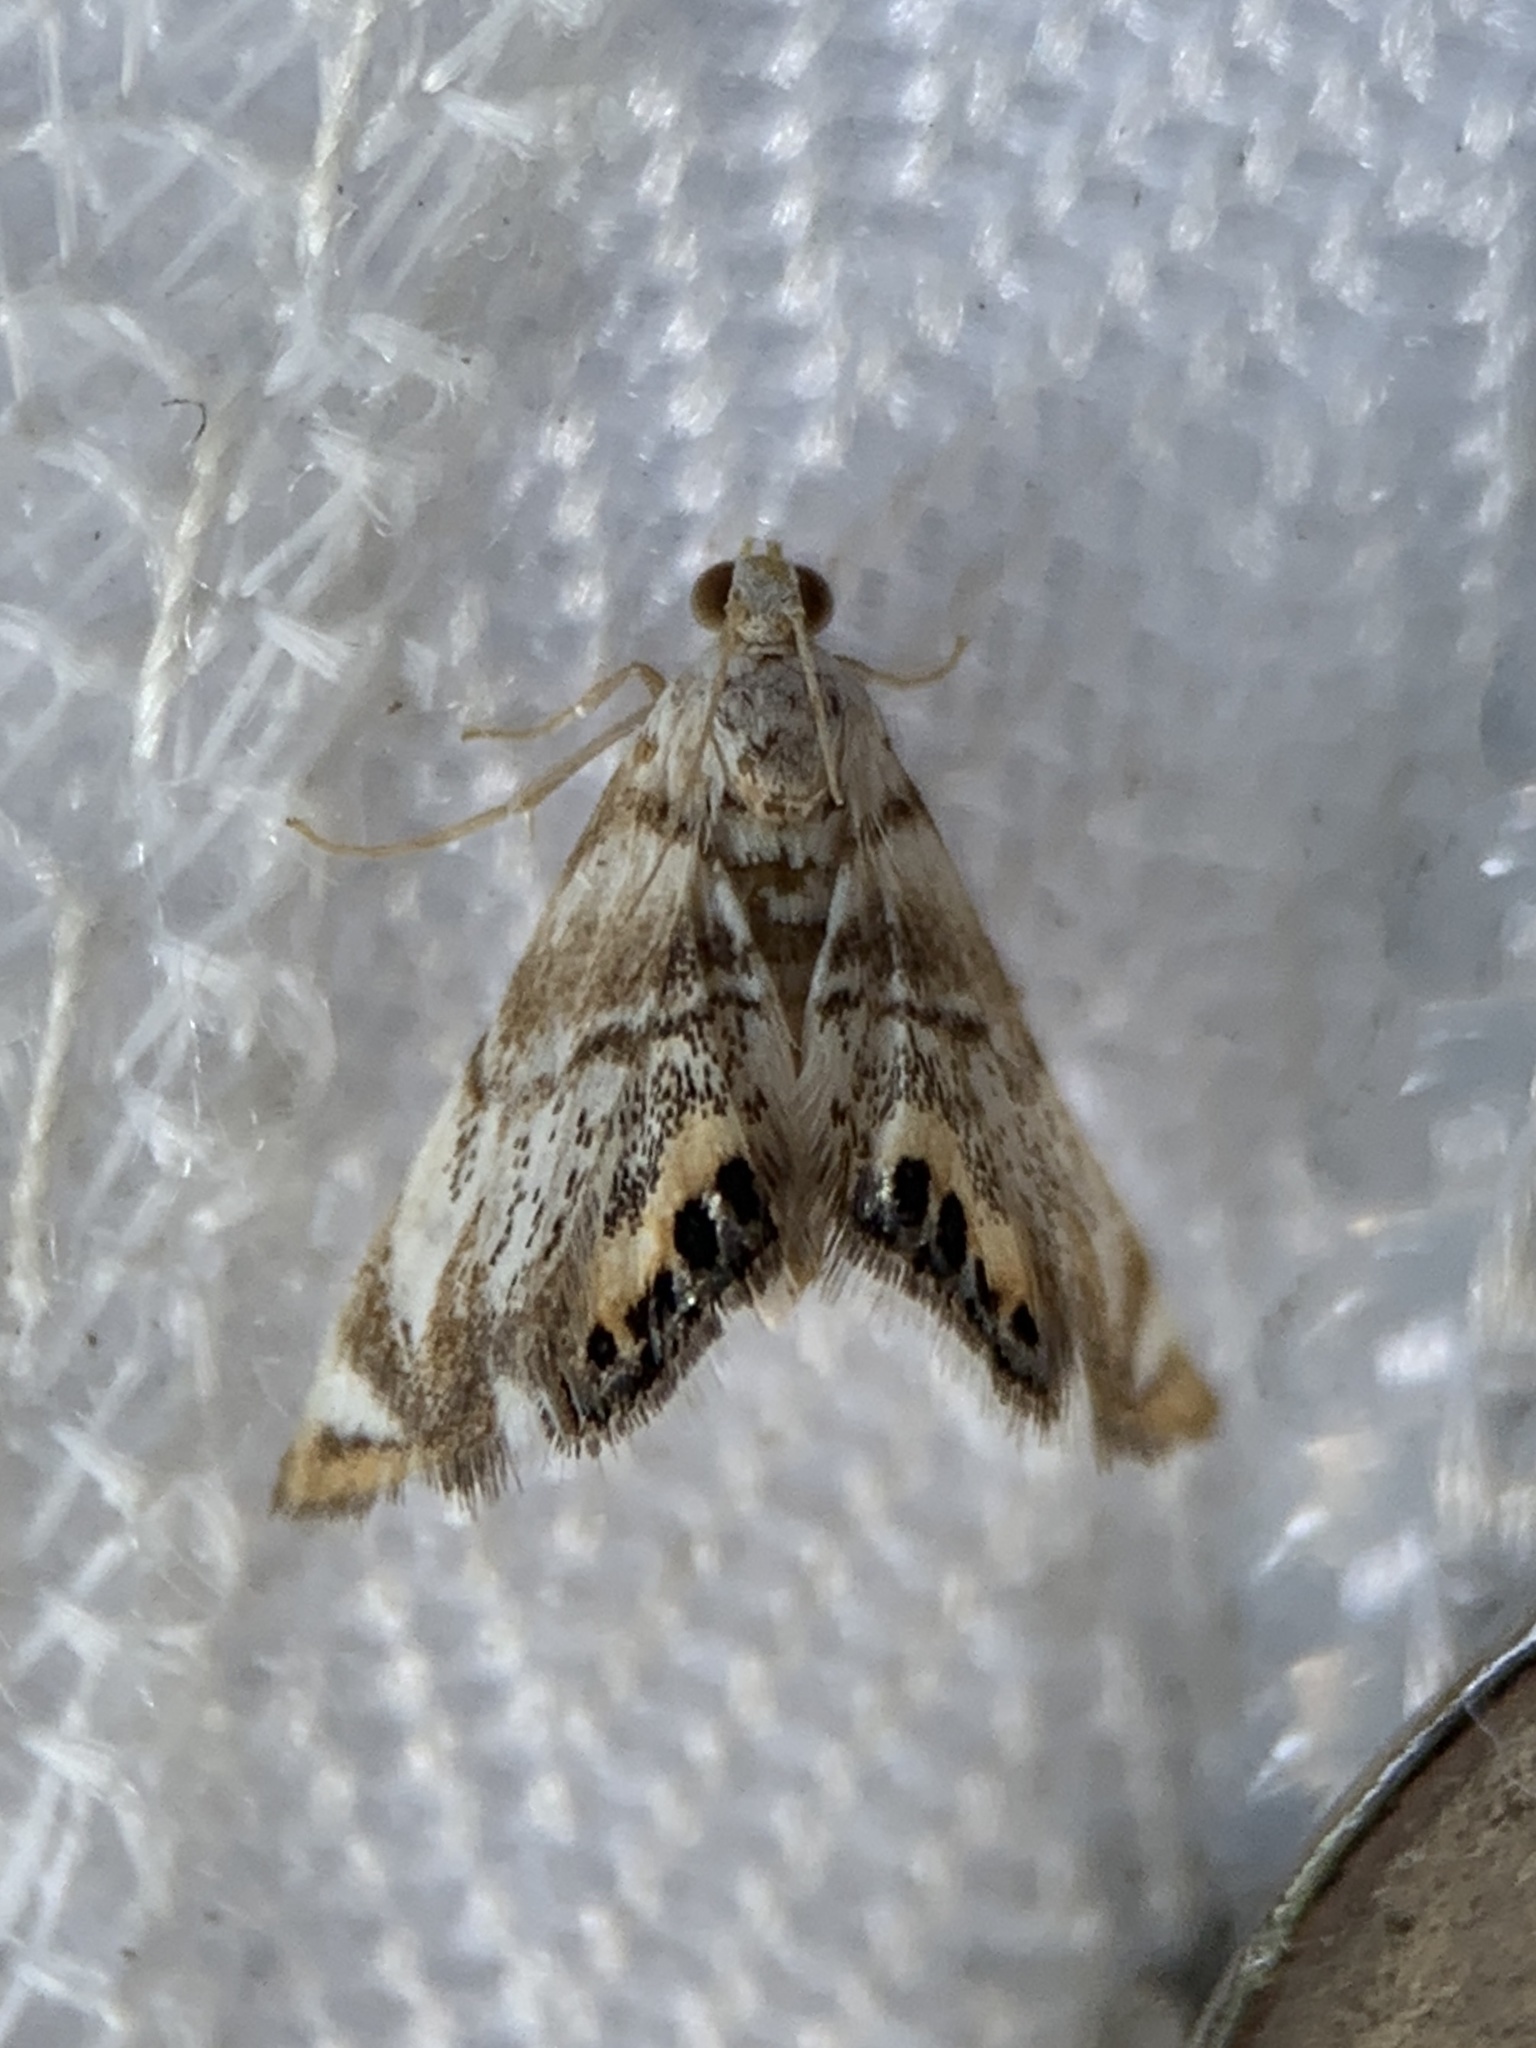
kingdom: Animalia
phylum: Arthropoda
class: Insecta
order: Lepidoptera
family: Crambidae
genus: Eoparargyractis
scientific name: Eoparargyractis irroratalis
